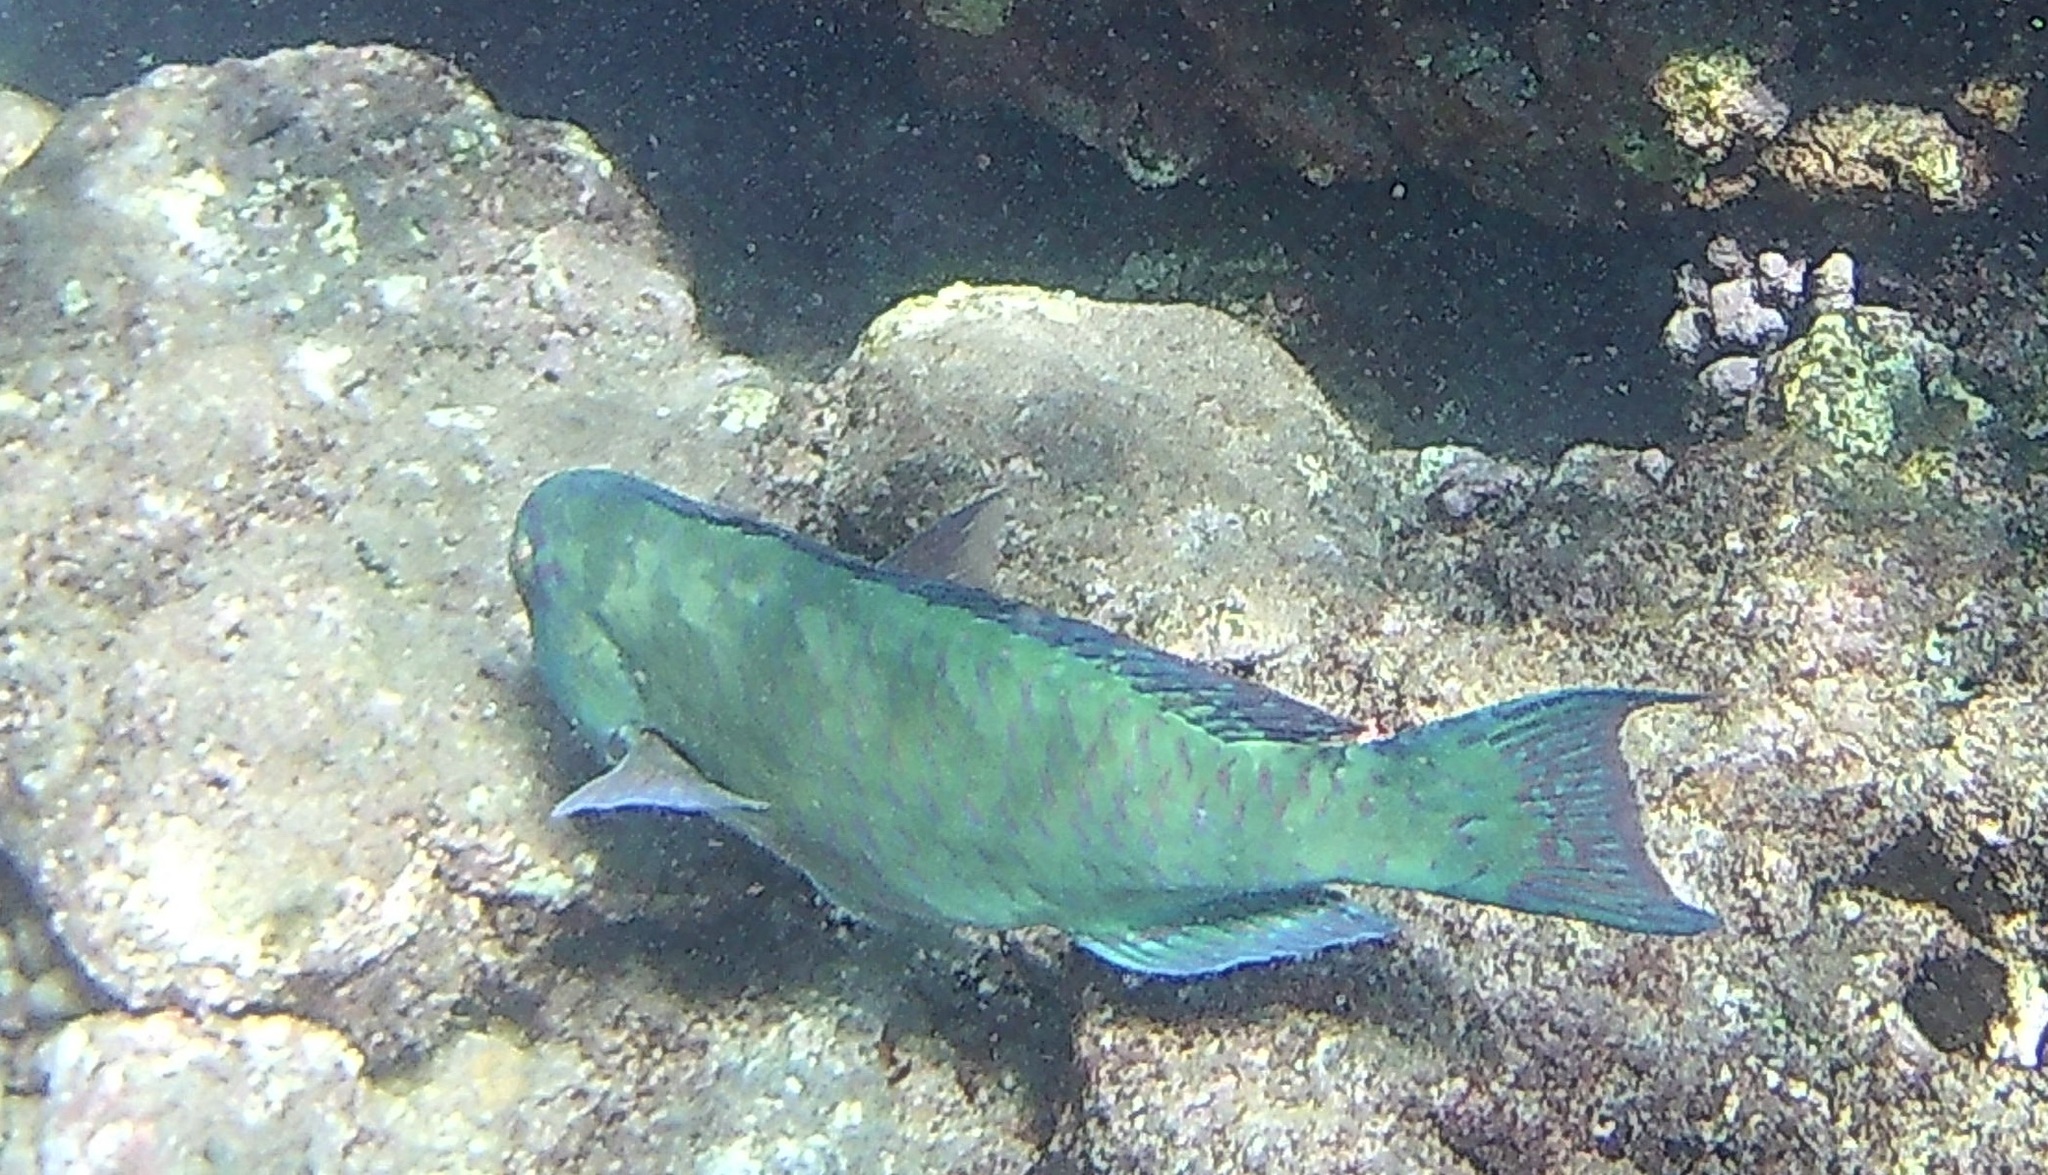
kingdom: Animalia
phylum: Chordata
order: Perciformes
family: Scaridae
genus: Calotomus
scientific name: Calotomus carolinus
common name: Bucktooth
